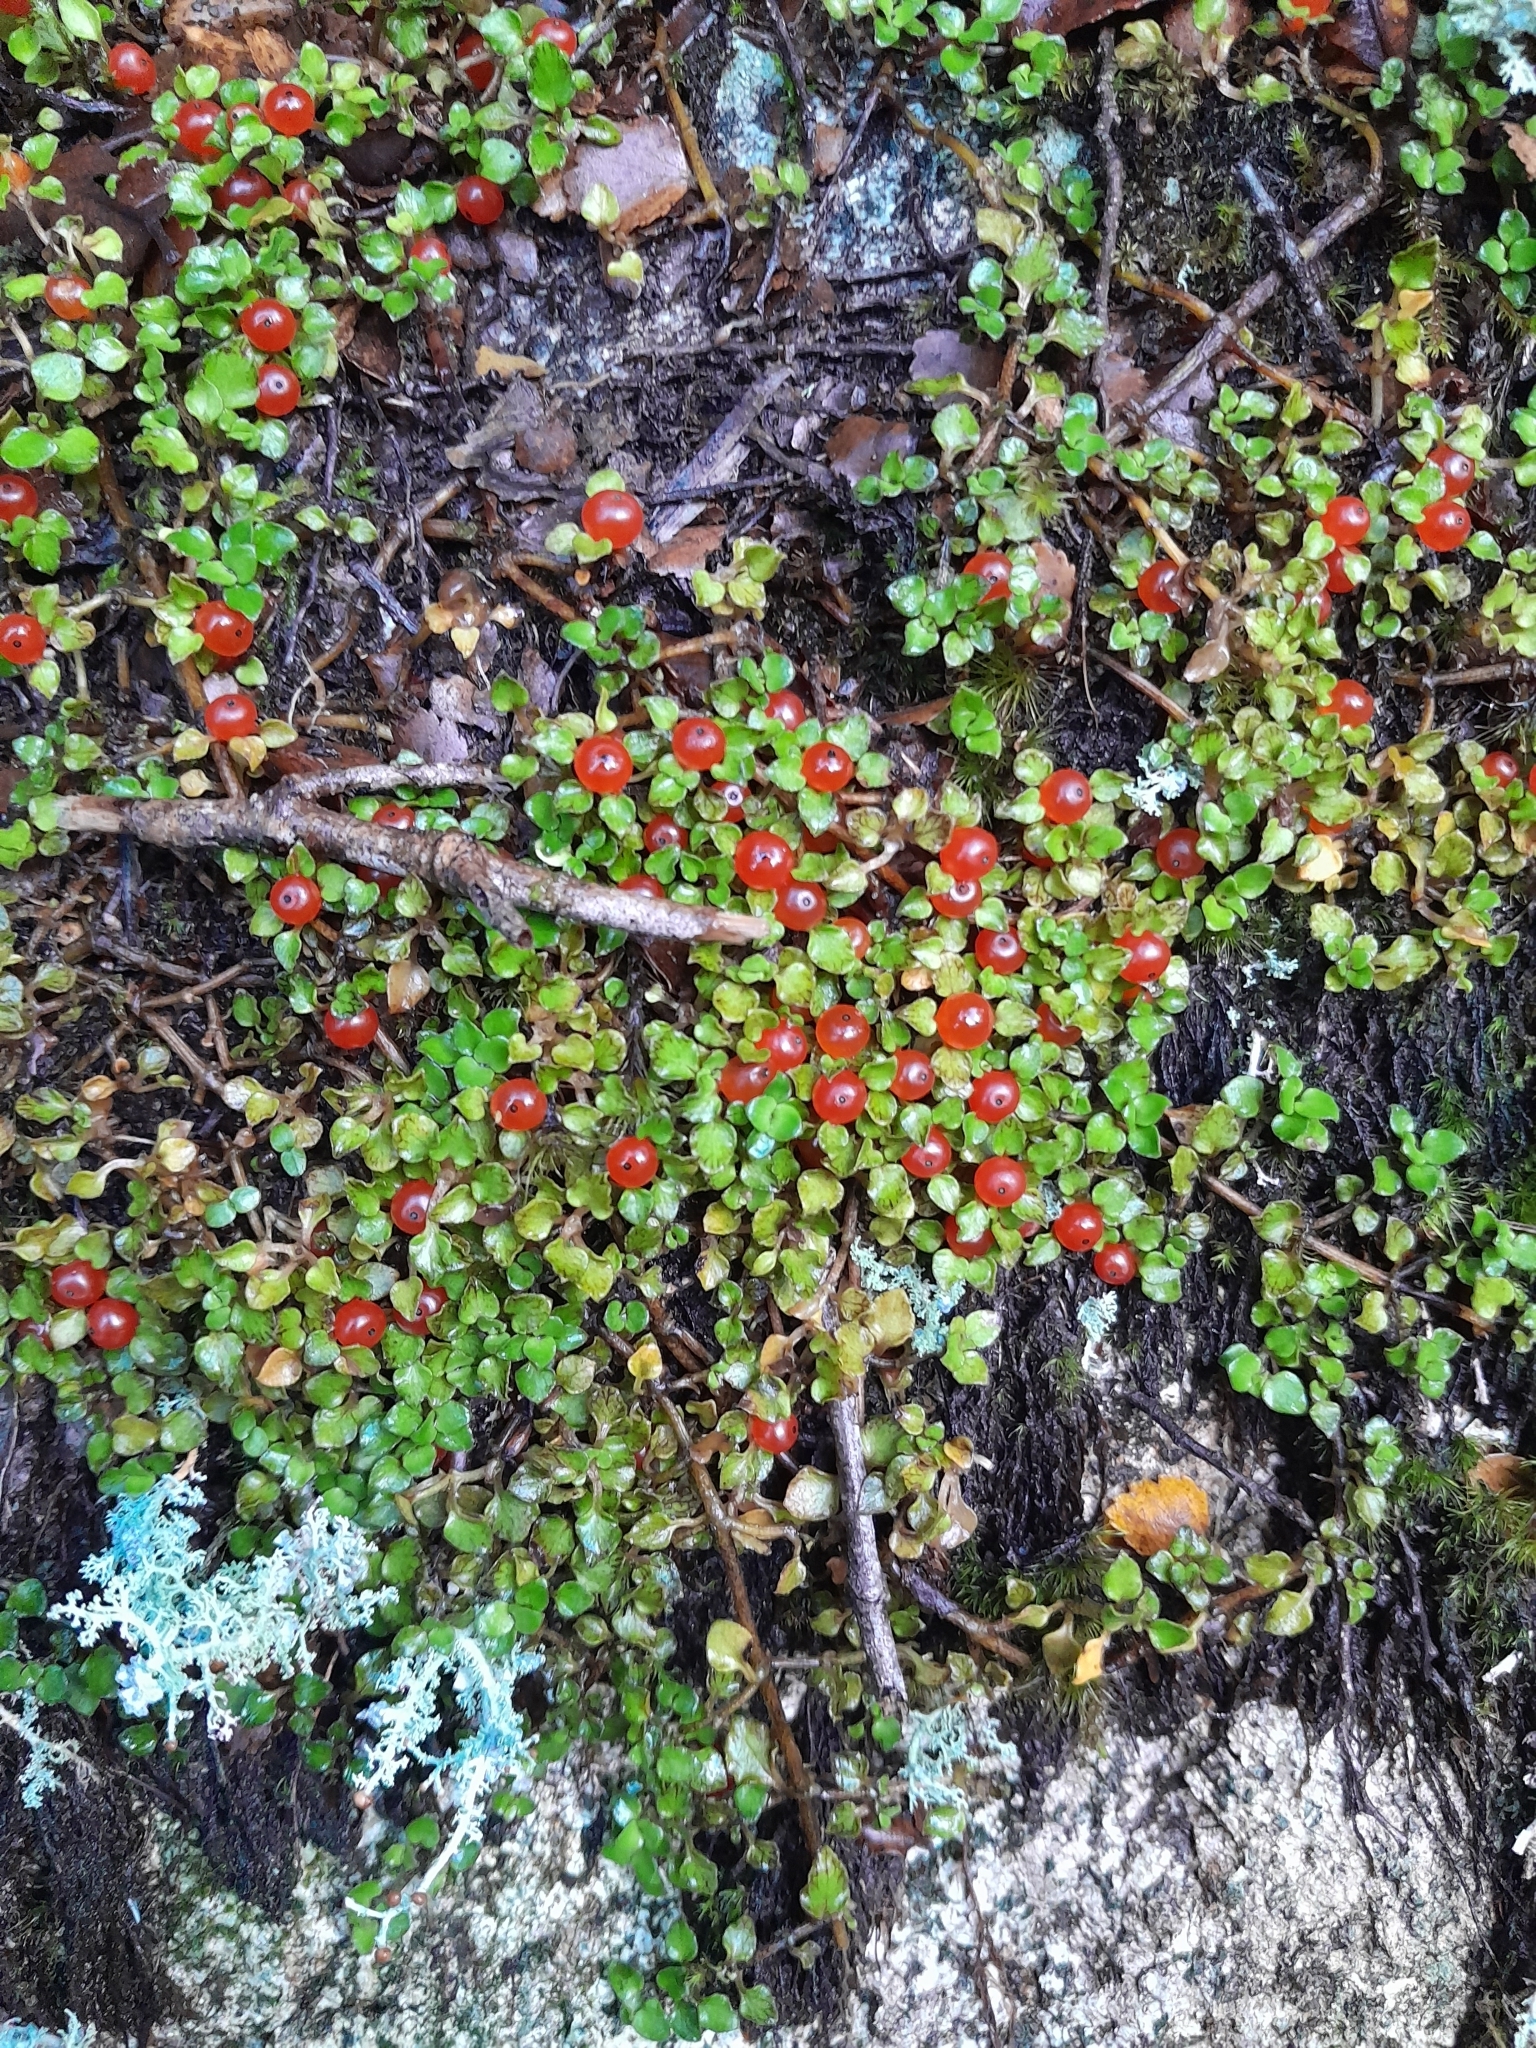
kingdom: Plantae
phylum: Tracheophyta
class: Magnoliopsida
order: Gentianales
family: Rubiaceae
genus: Nertera
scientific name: Nertera granadensis
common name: Beadplant
